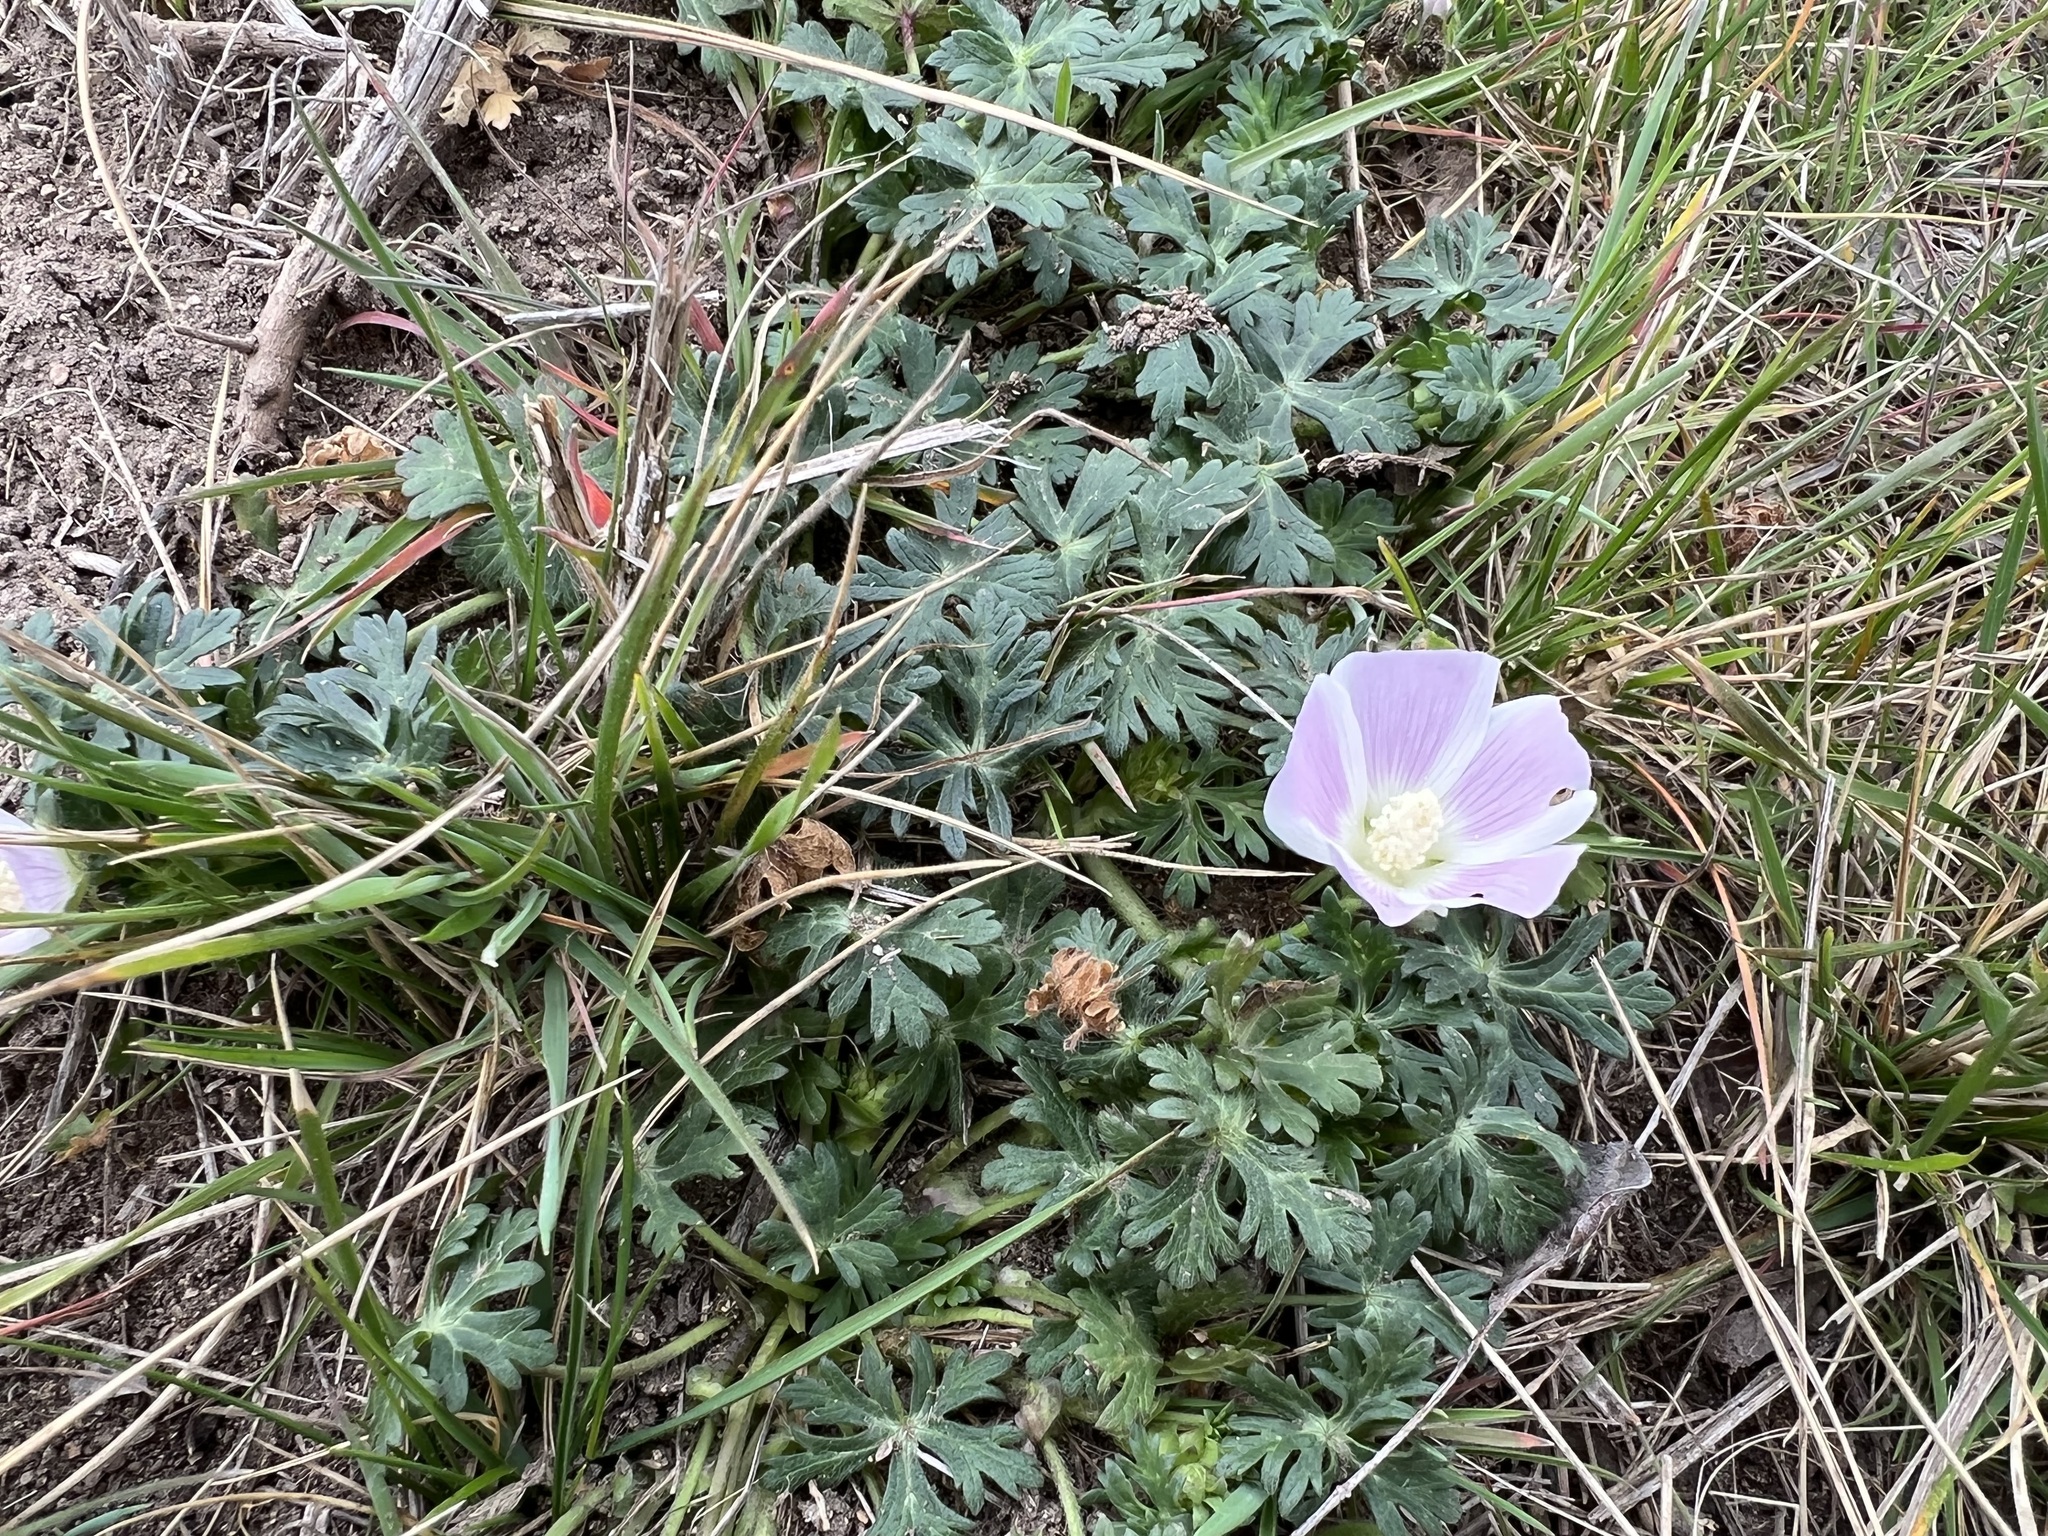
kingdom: Plantae
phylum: Tracheophyta
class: Magnoliopsida
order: Malvales
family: Malvaceae
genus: Callirhoe
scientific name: Callirhoe involucrata
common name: Purple poppy-mallow
